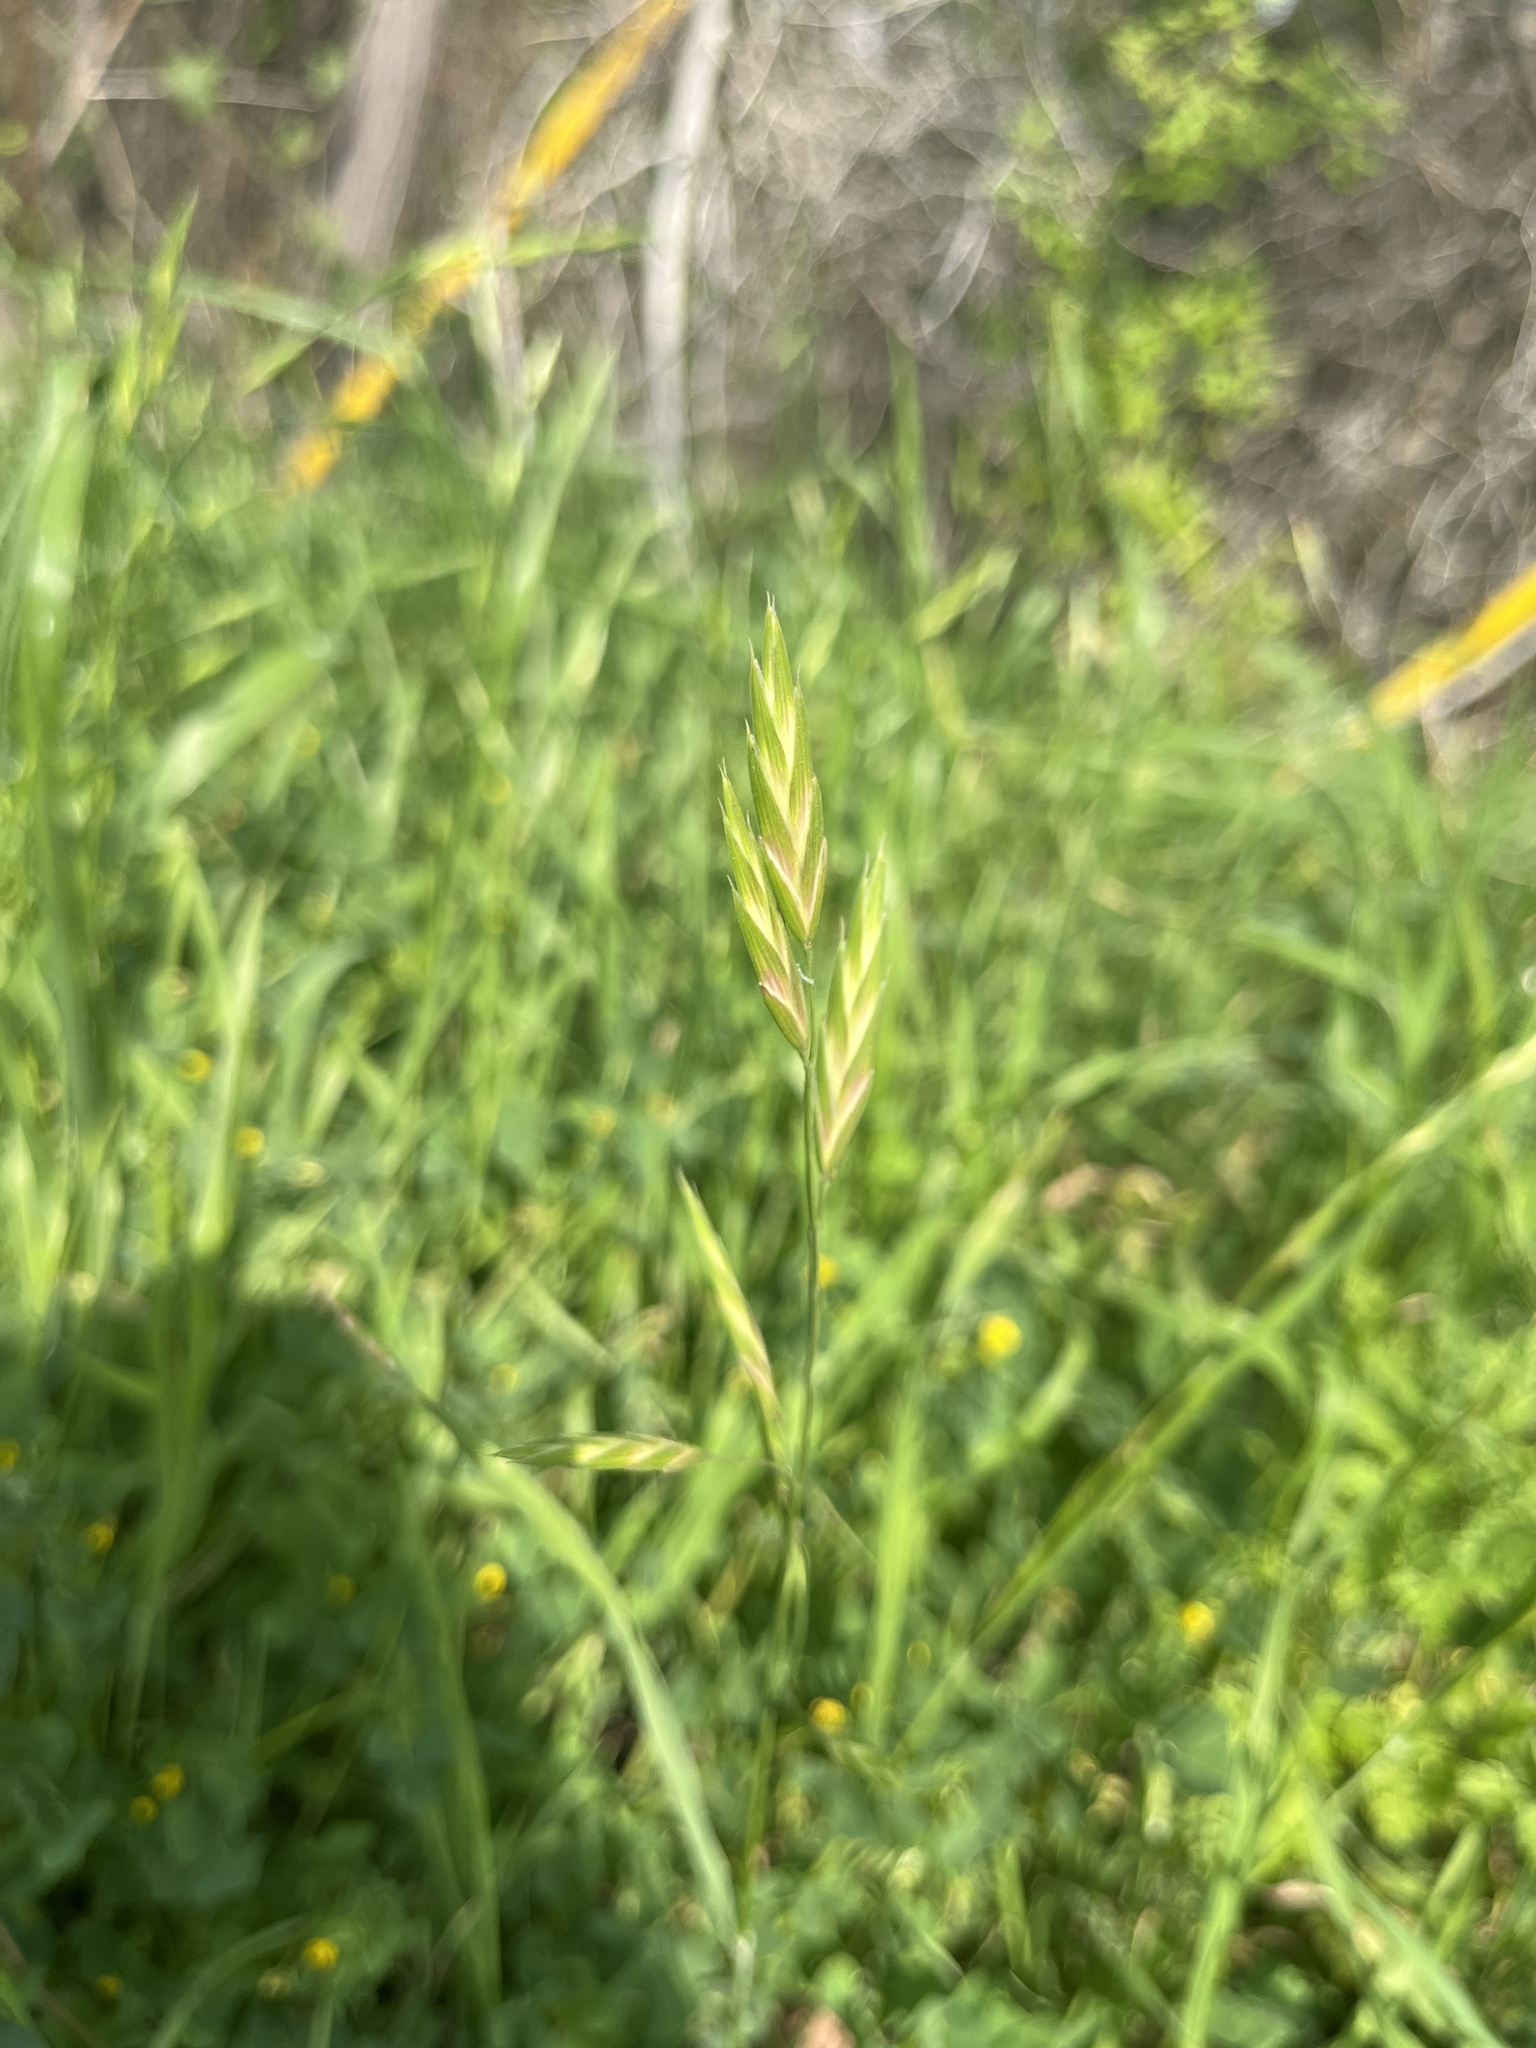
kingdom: Plantae
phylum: Tracheophyta
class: Liliopsida
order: Poales
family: Poaceae
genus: Bromus
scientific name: Bromus catharticus
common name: Rescuegrass
